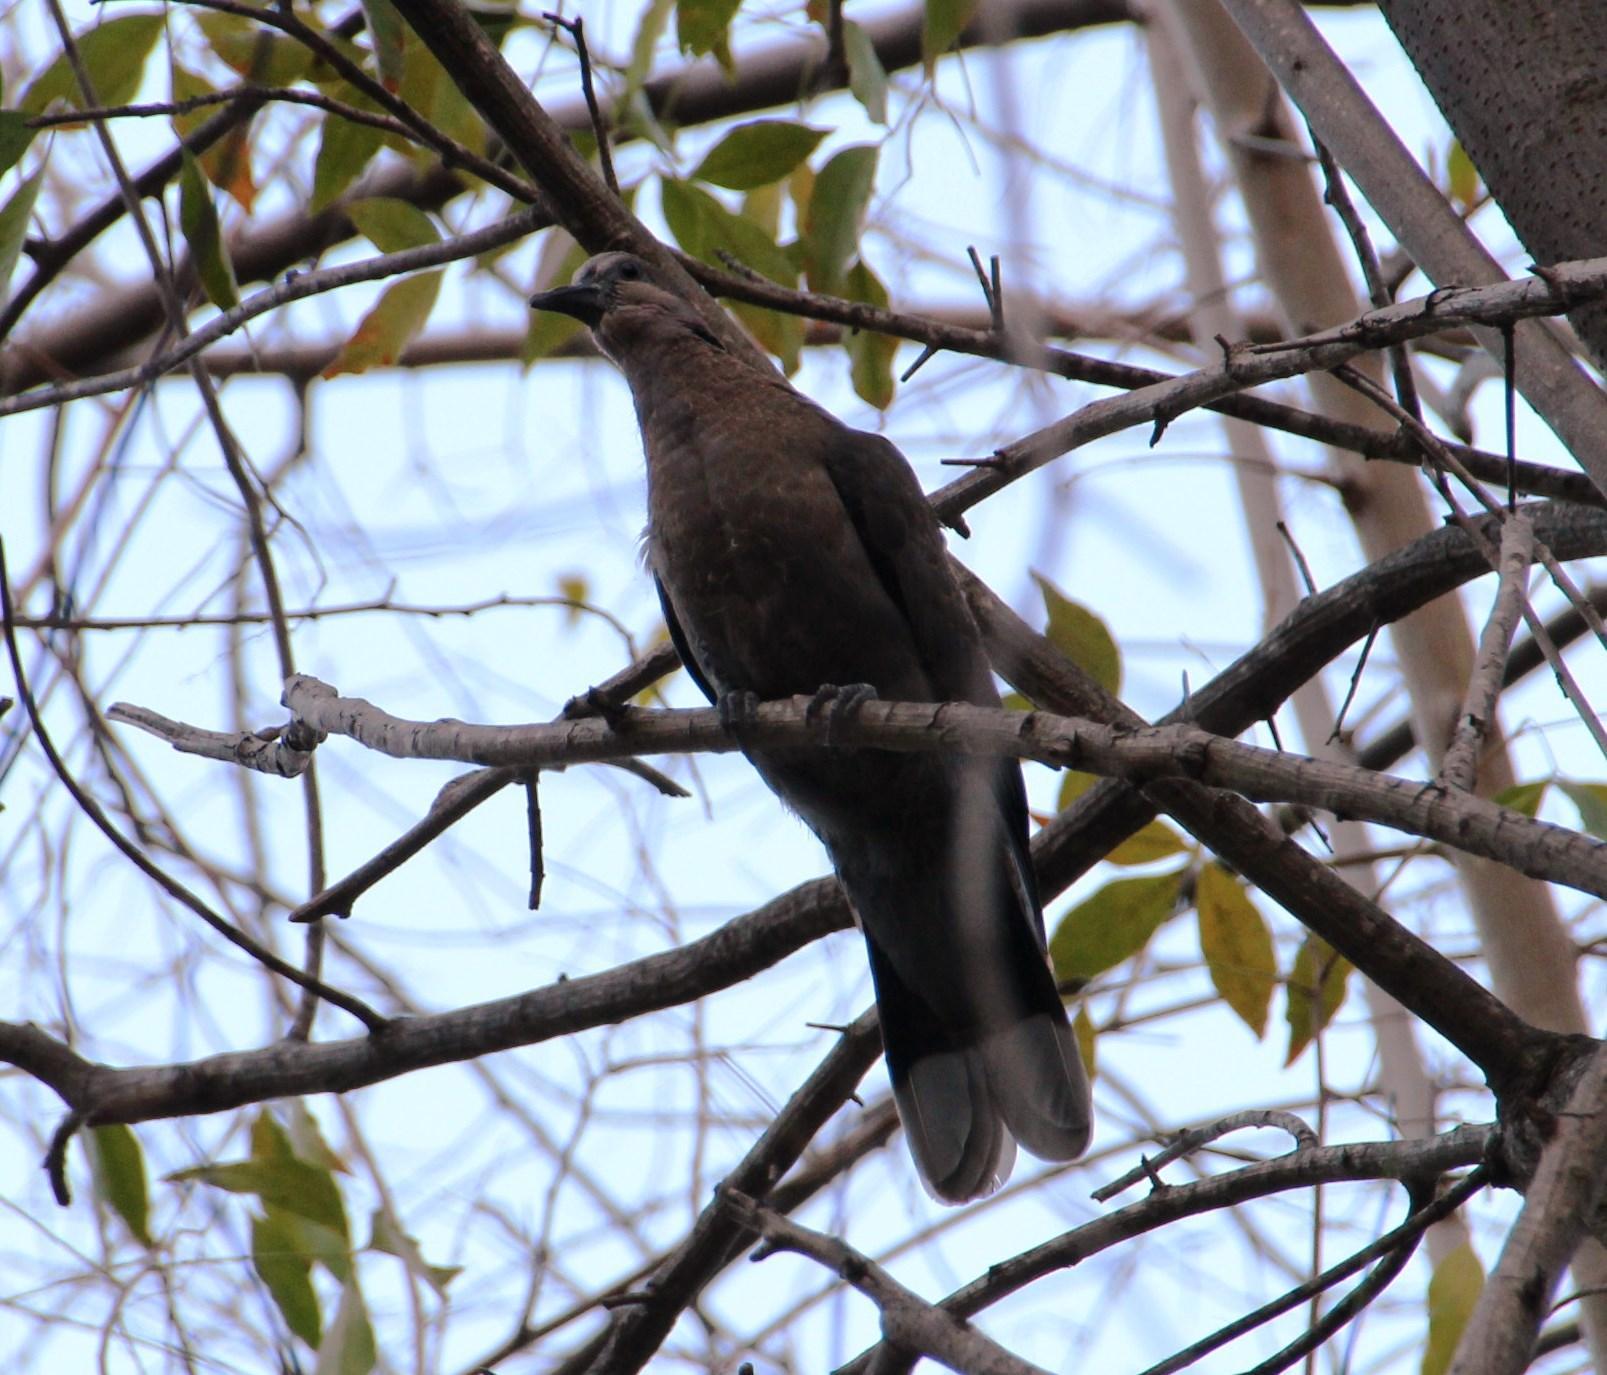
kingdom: Animalia
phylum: Chordata
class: Aves
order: Columbiformes
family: Columbidae
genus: Streptopelia
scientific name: Streptopelia semitorquata
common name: Red-eyed dove
